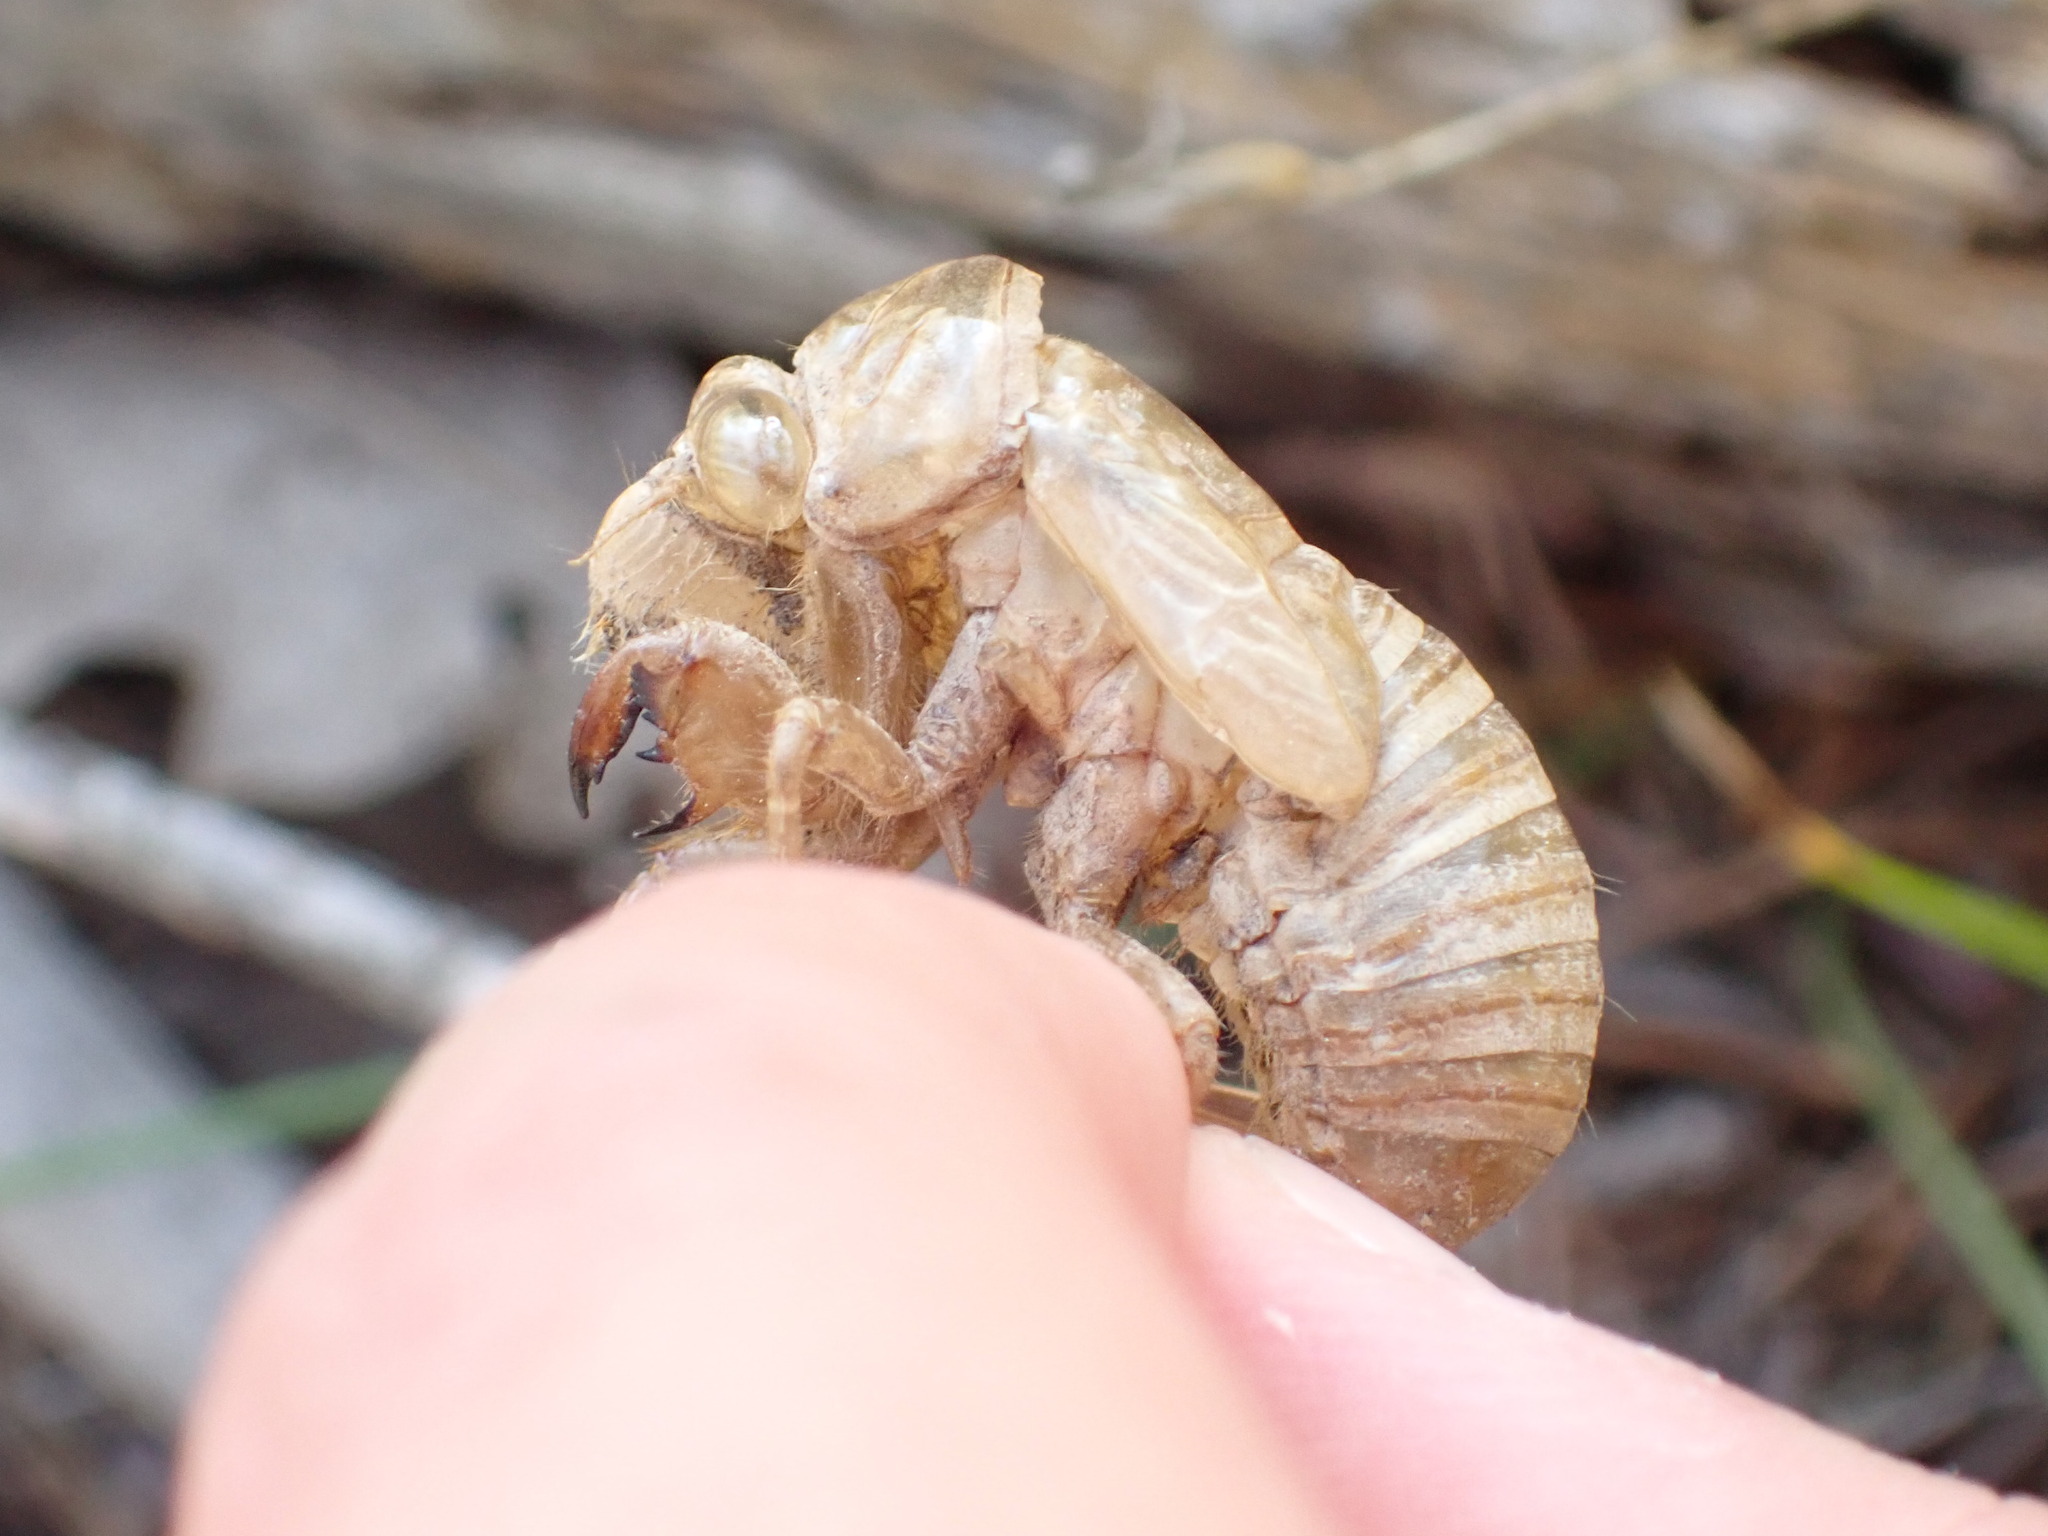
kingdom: Animalia
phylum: Arthropoda
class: Insecta
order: Hemiptera
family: Cicadidae
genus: Lyristes
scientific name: Lyristes plebejus
